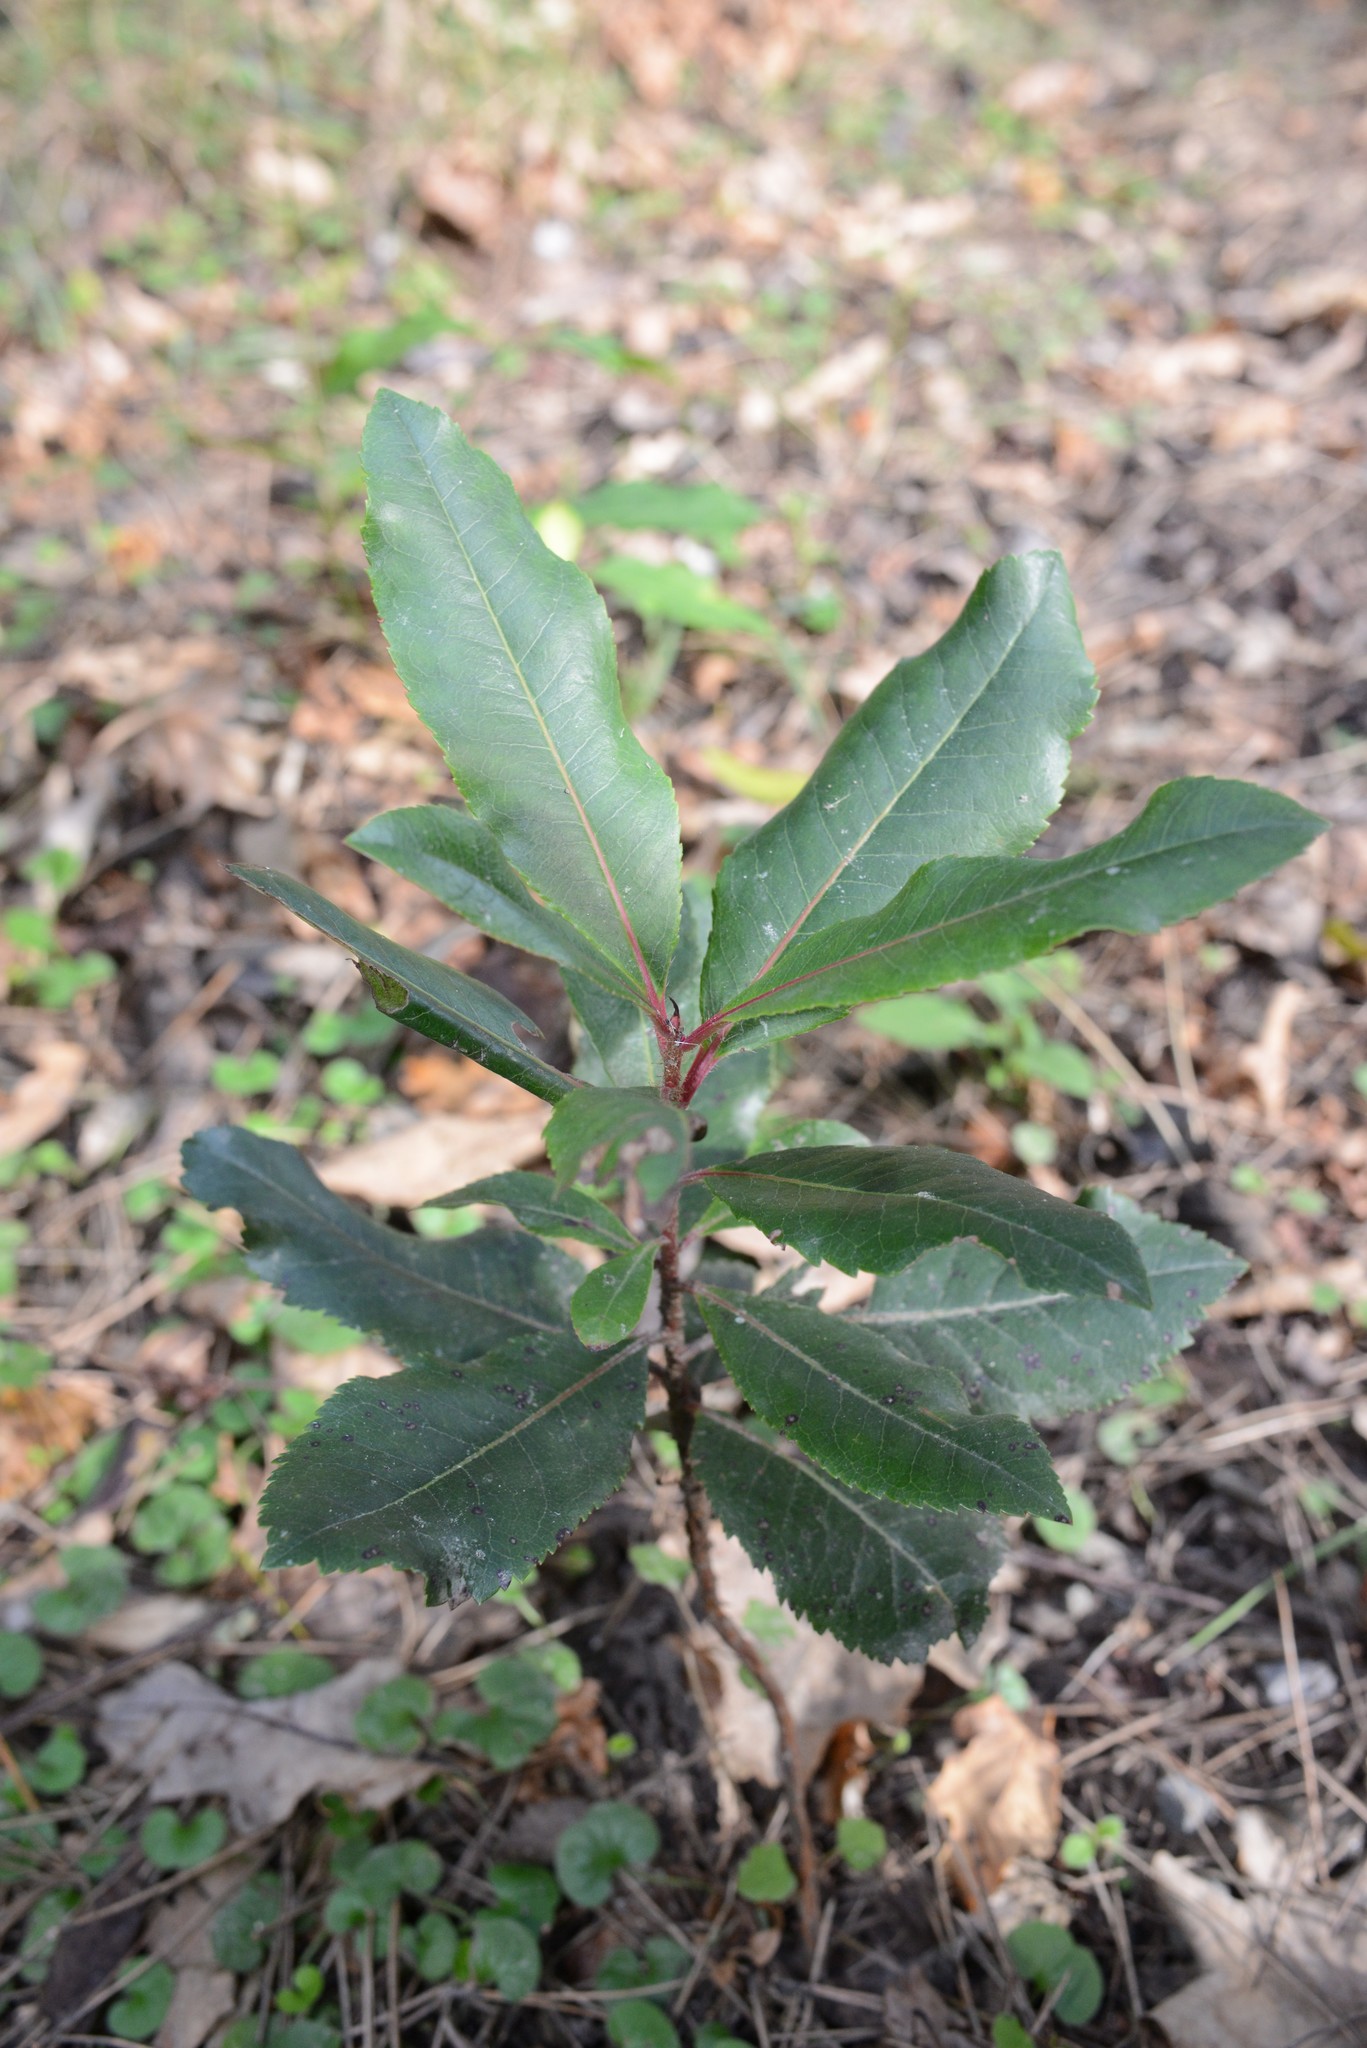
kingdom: Plantae
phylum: Tracheophyta
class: Magnoliopsida
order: Ericales
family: Ericaceae
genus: Arbutus
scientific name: Arbutus unedo
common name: Strawberry-tree
